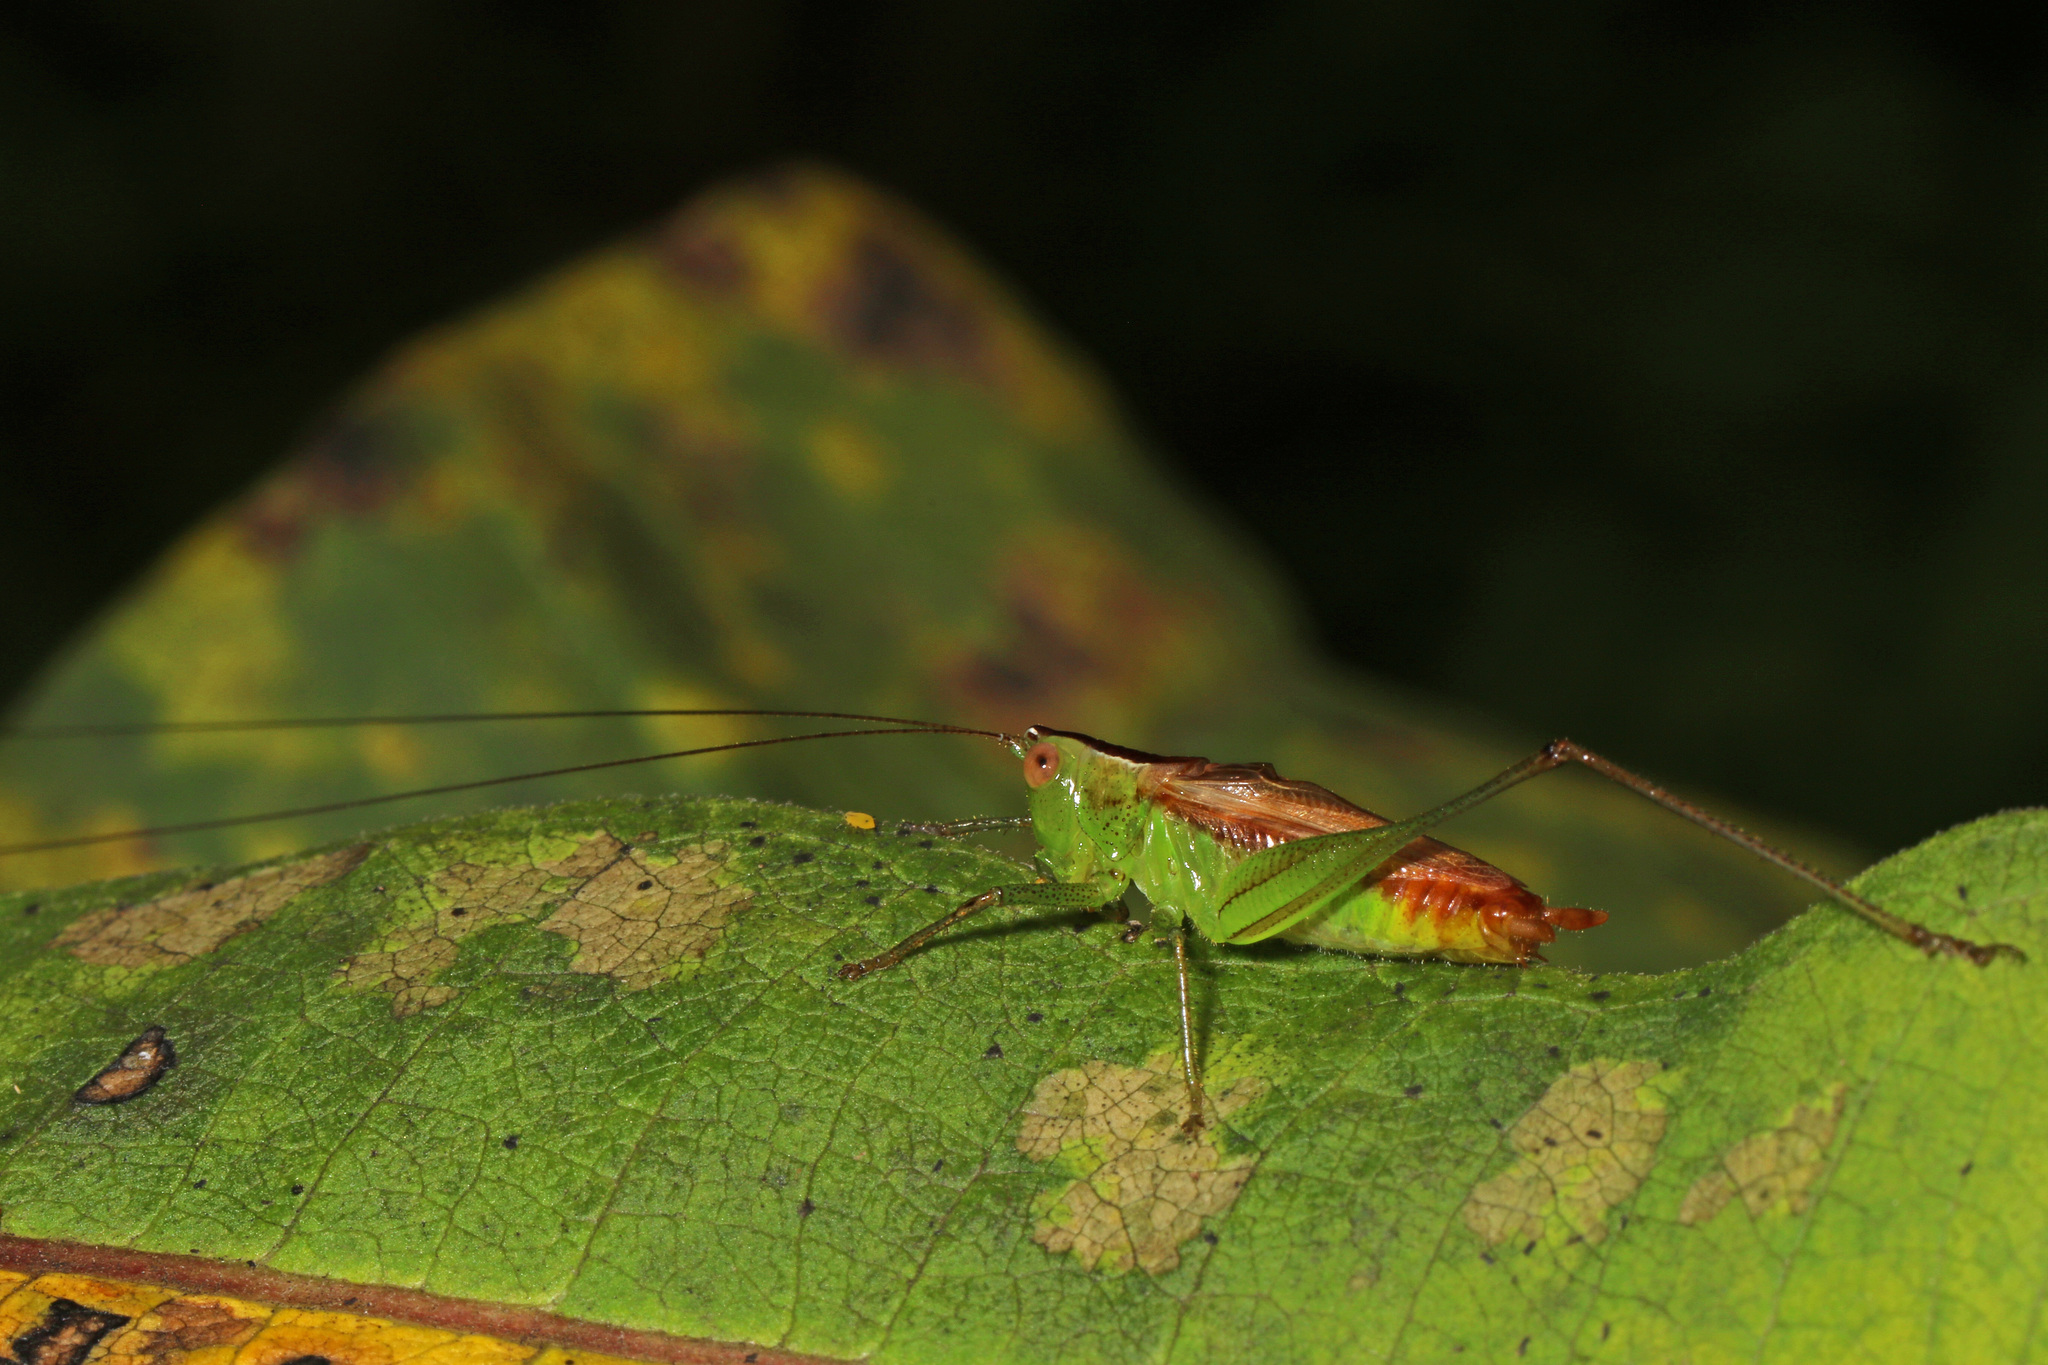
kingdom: Animalia
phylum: Arthropoda
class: Insecta
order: Orthoptera
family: Tettigoniidae
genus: Conocephalus
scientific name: Conocephalus brevipennis
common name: Short-winged meadow katydid
